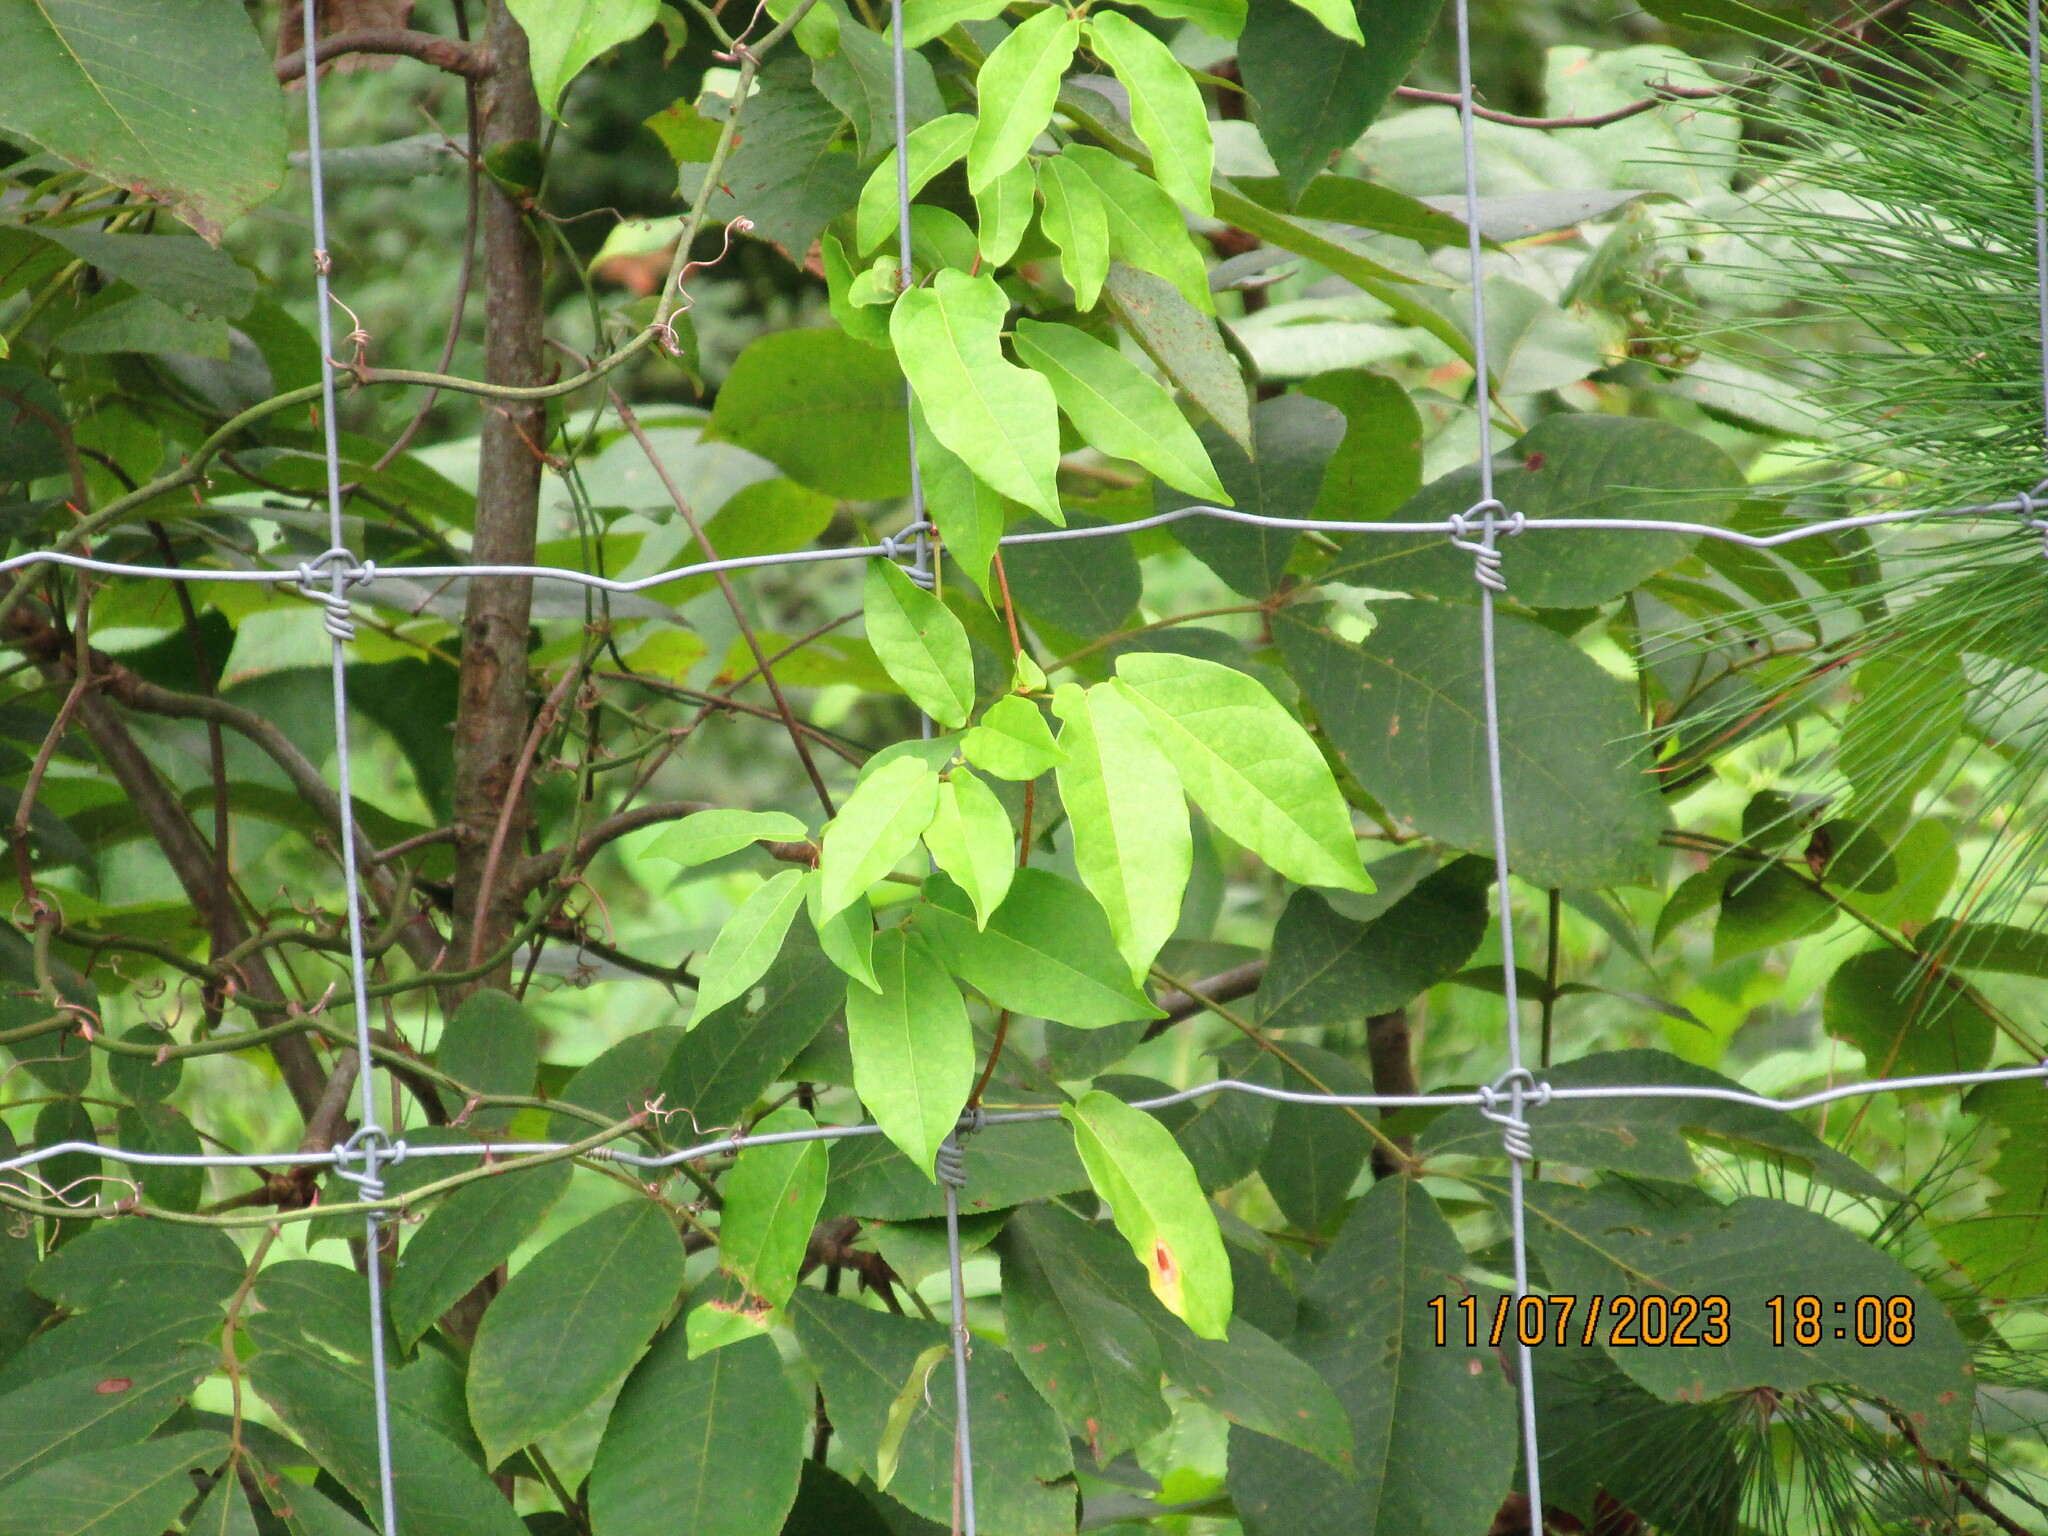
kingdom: Plantae
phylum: Tracheophyta
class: Magnoliopsida
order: Lamiales
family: Bignoniaceae
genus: Bignonia
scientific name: Bignonia capreolata
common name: Crossvine
